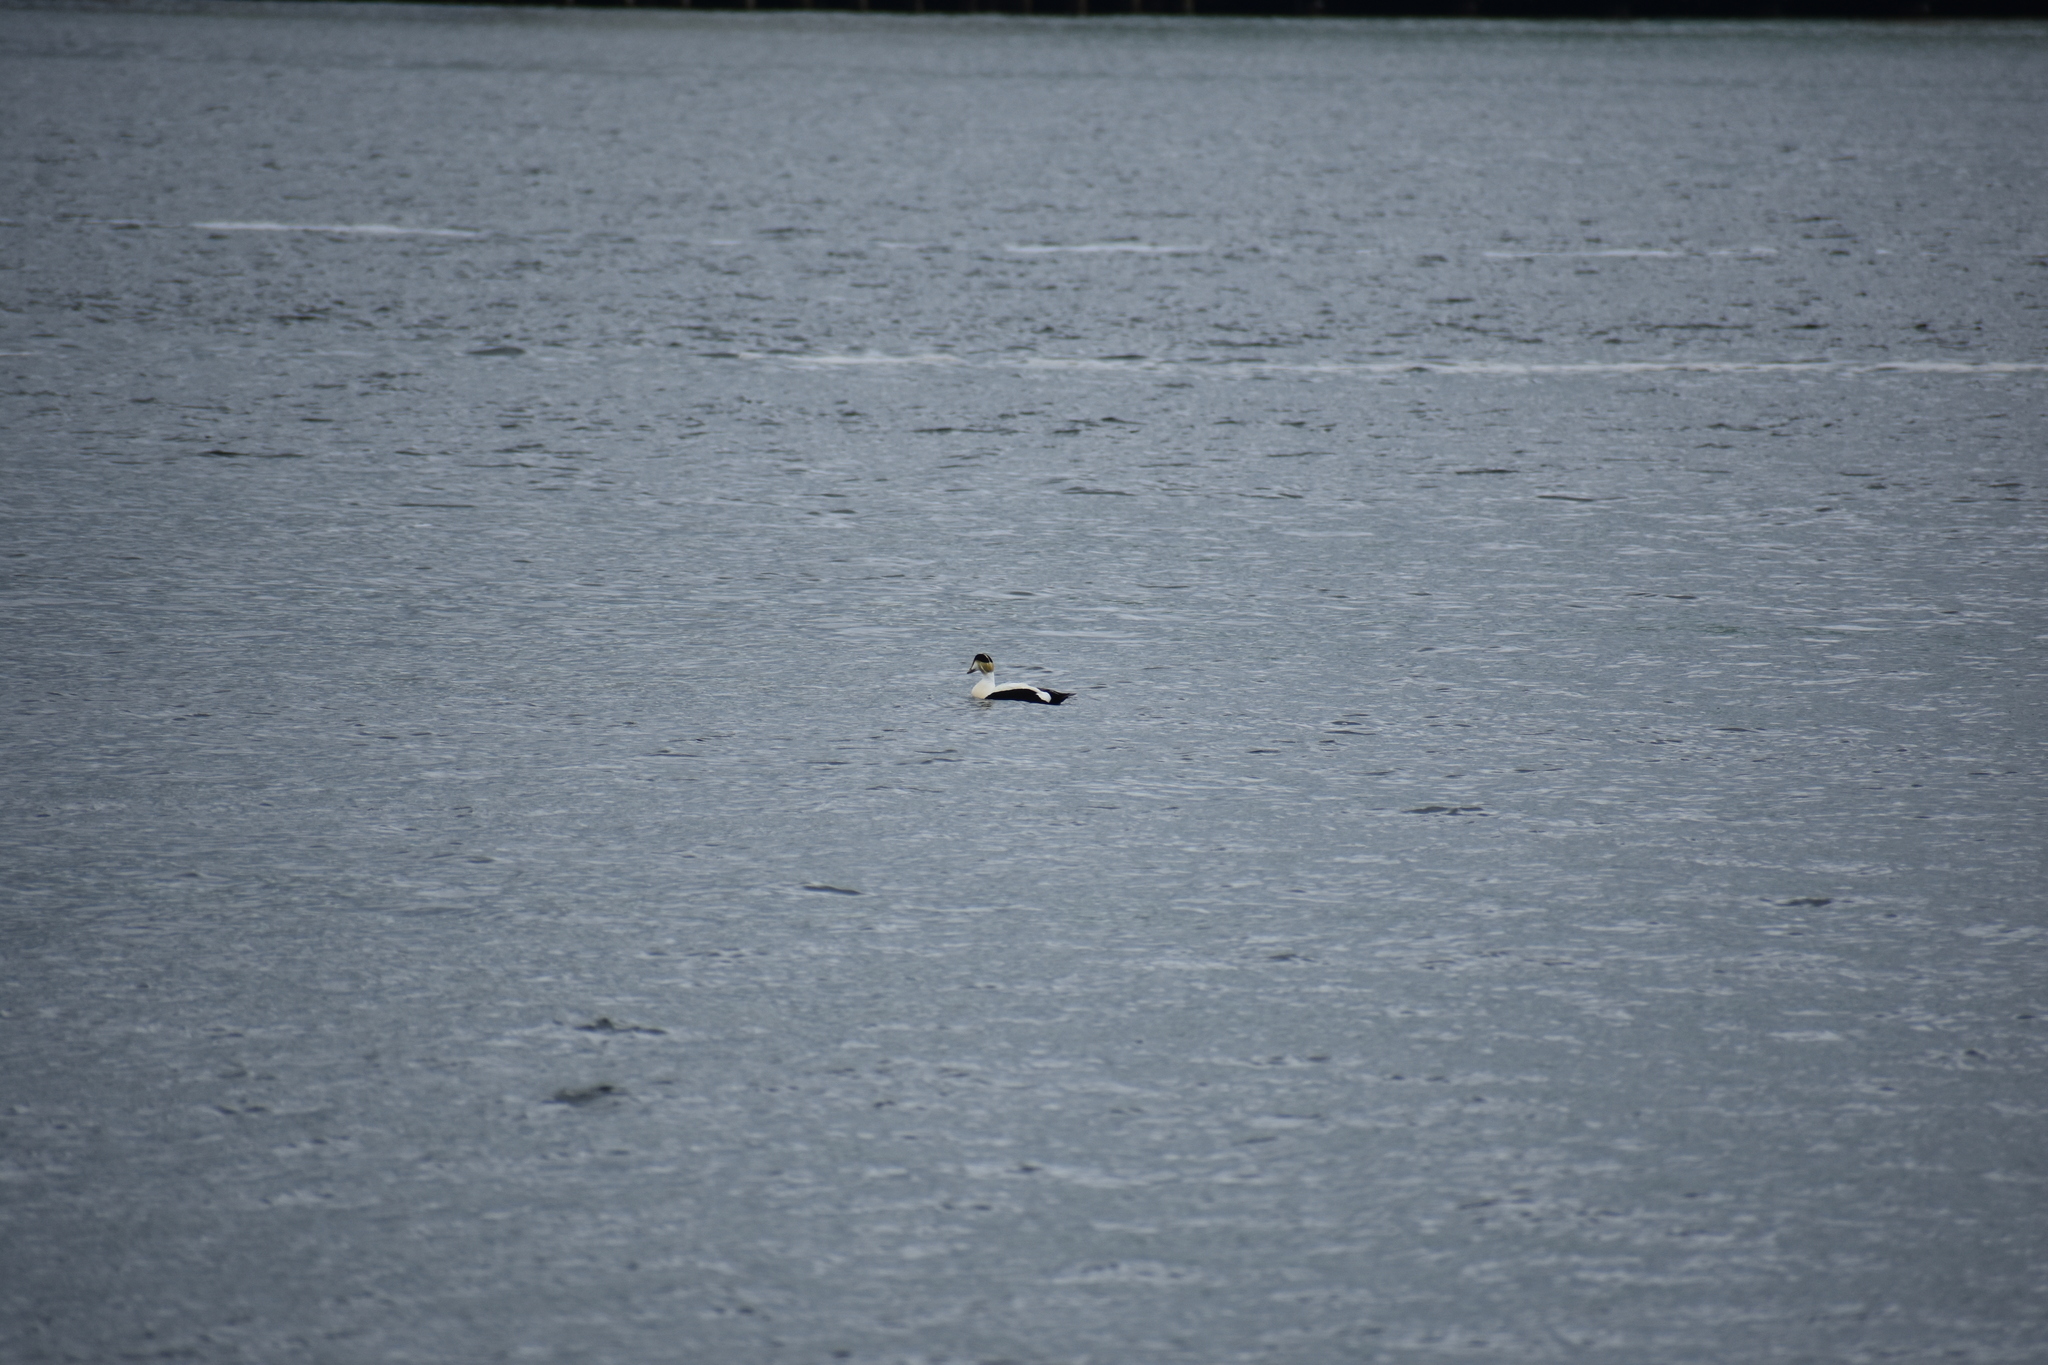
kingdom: Animalia
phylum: Chordata
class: Aves
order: Anseriformes
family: Anatidae
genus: Somateria
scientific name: Somateria mollissima
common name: Common eider
